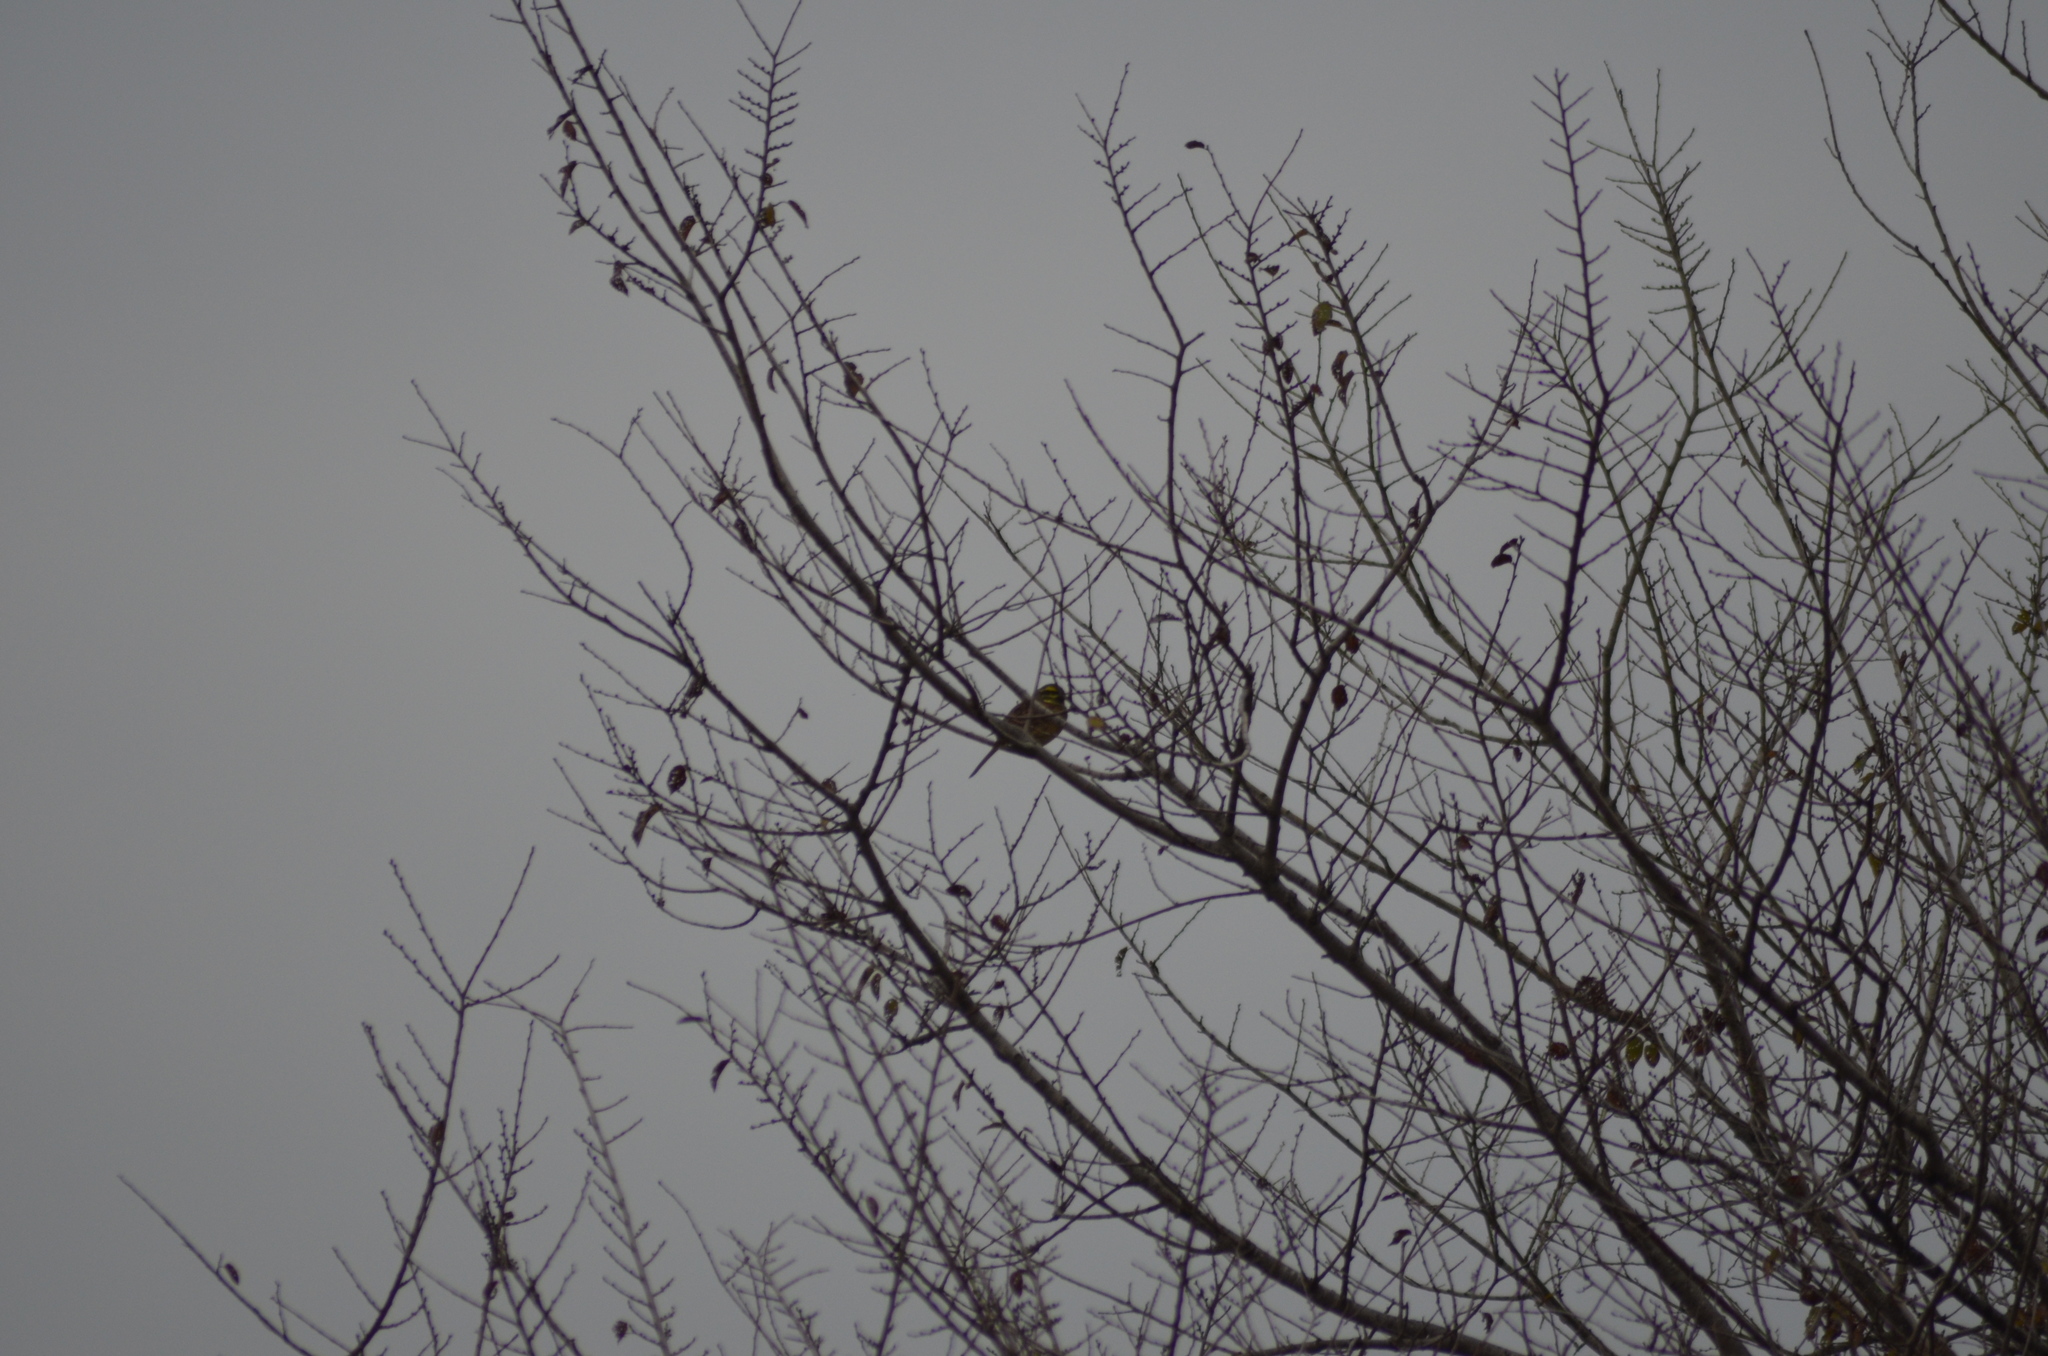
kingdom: Animalia
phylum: Chordata
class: Aves
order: Passeriformes
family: Emberizidae
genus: Emberiza
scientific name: Emberiza cirlus
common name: Cirl bunting
